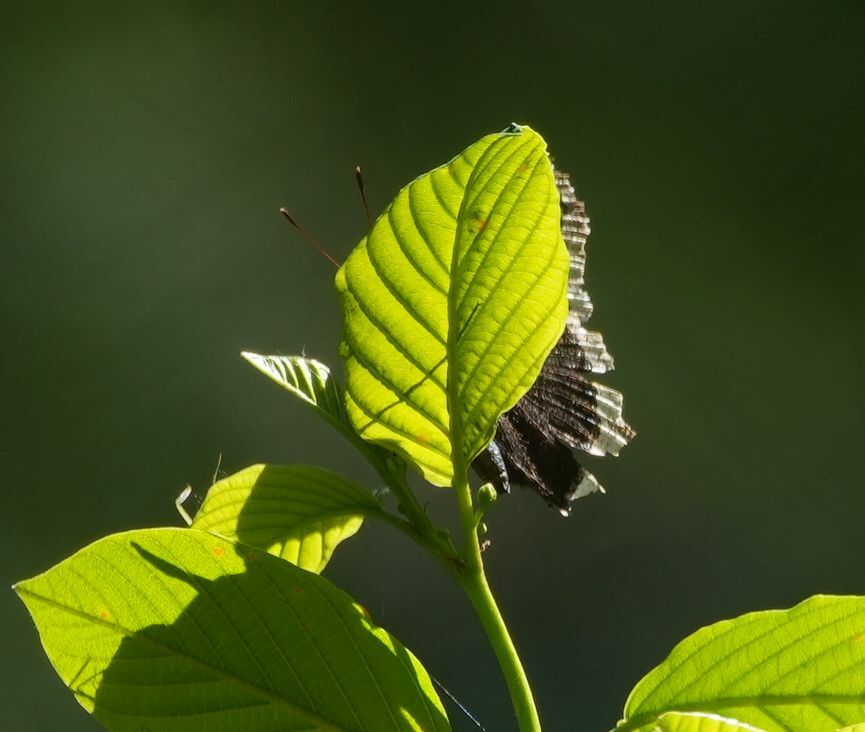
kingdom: Animalia
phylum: Arthropoda
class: Insecta
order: Lepidoptera
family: Nymphalidae
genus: Nymphalis
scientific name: Nymphalis antiopa
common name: Camberwell beauty
